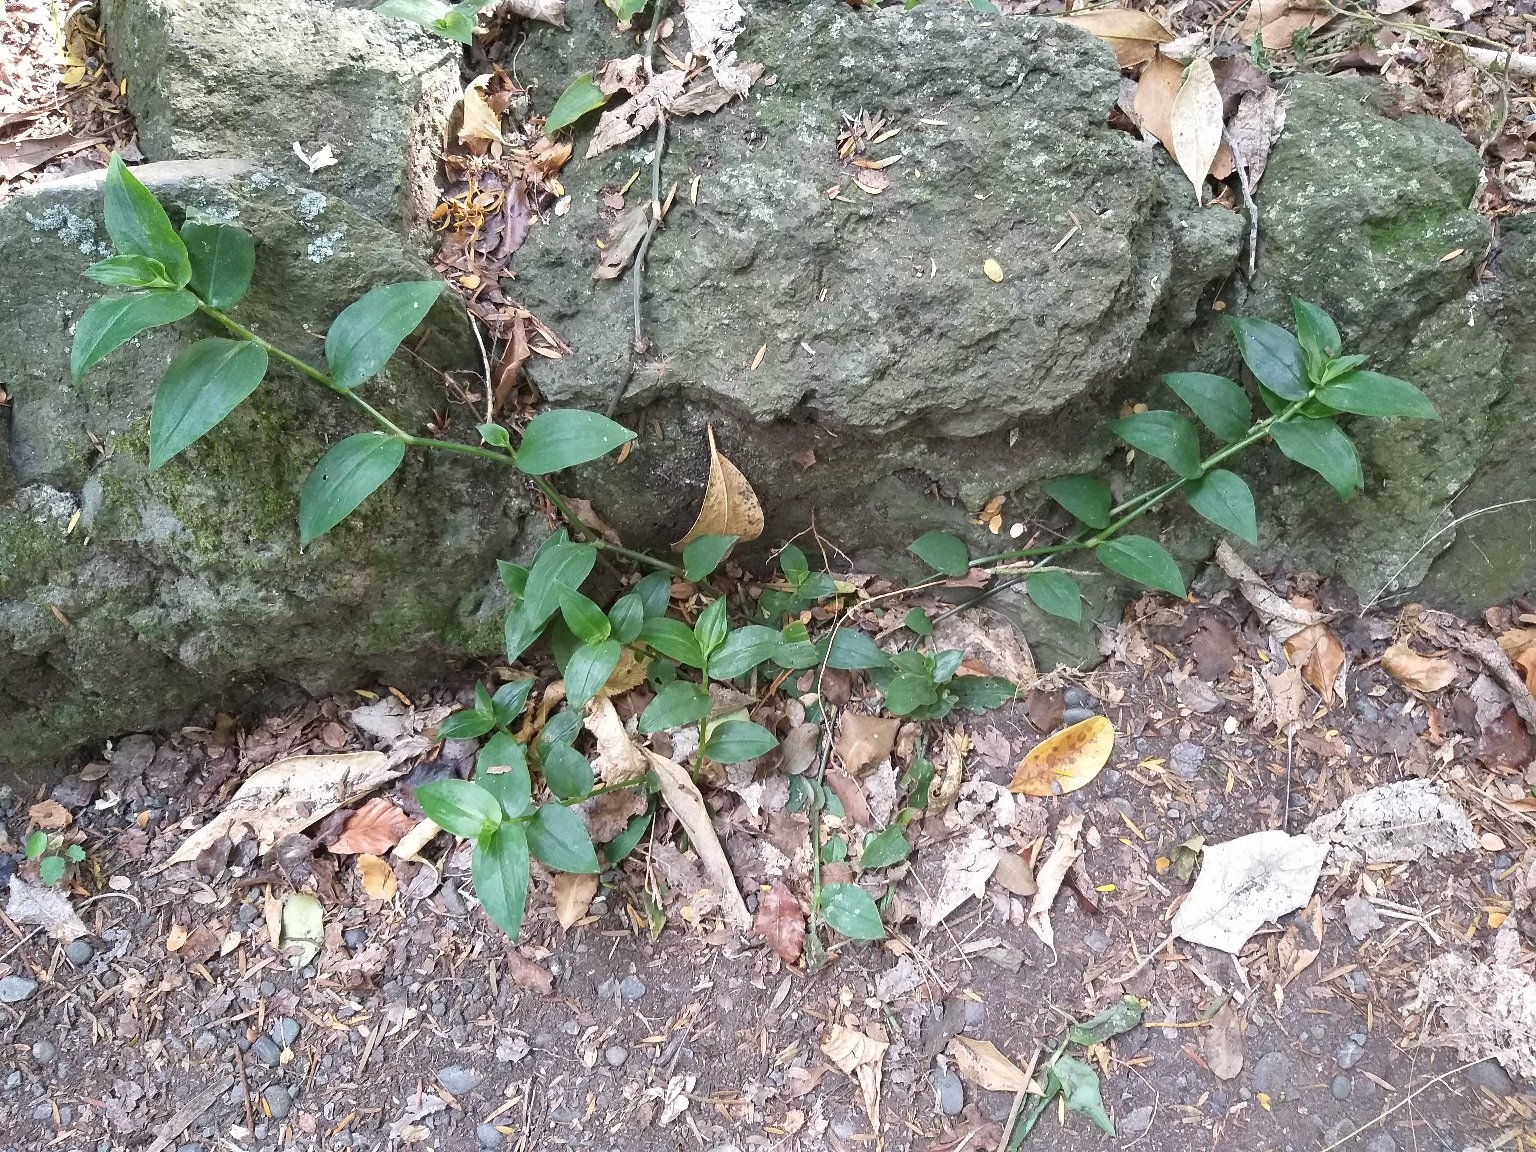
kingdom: Plantae
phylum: Tracheophyta
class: Liliopsida
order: Commelinales
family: Commelinaceae
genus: Tradescantia
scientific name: Tradescantia fluminensis
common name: Wandering-jew
